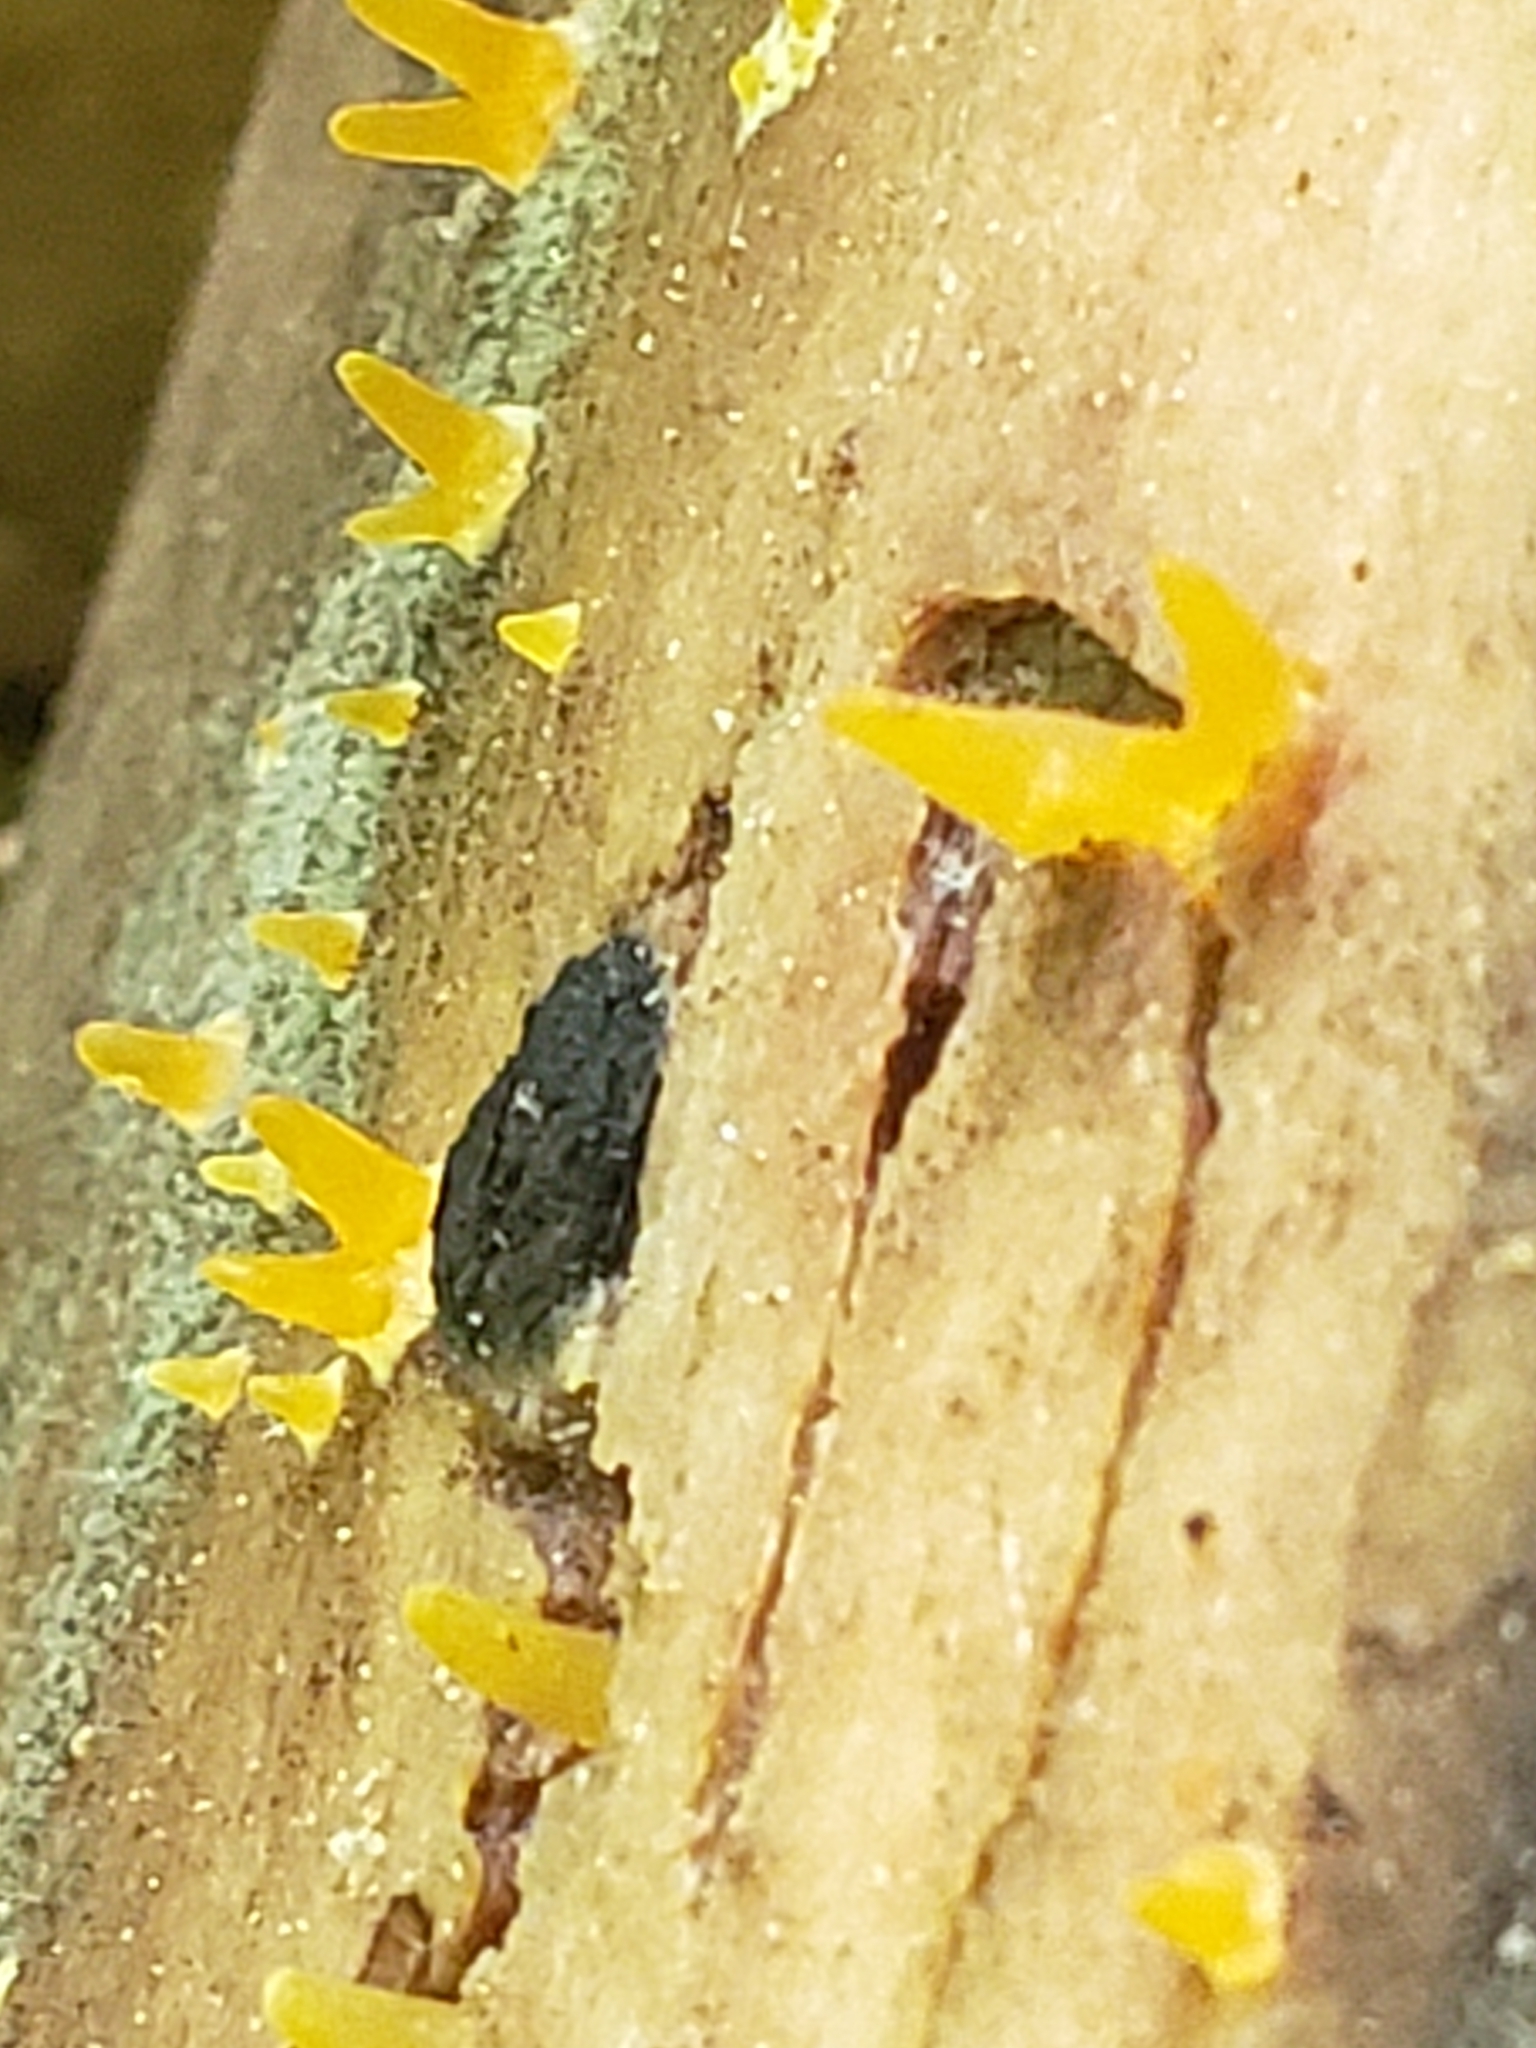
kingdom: Fungi
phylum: Basidiomycota
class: Dacrymycetes
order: Dacrymycetales
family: Dacrymycetaceae
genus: Calocera
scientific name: Calocera cornea
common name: Small stagshorn
